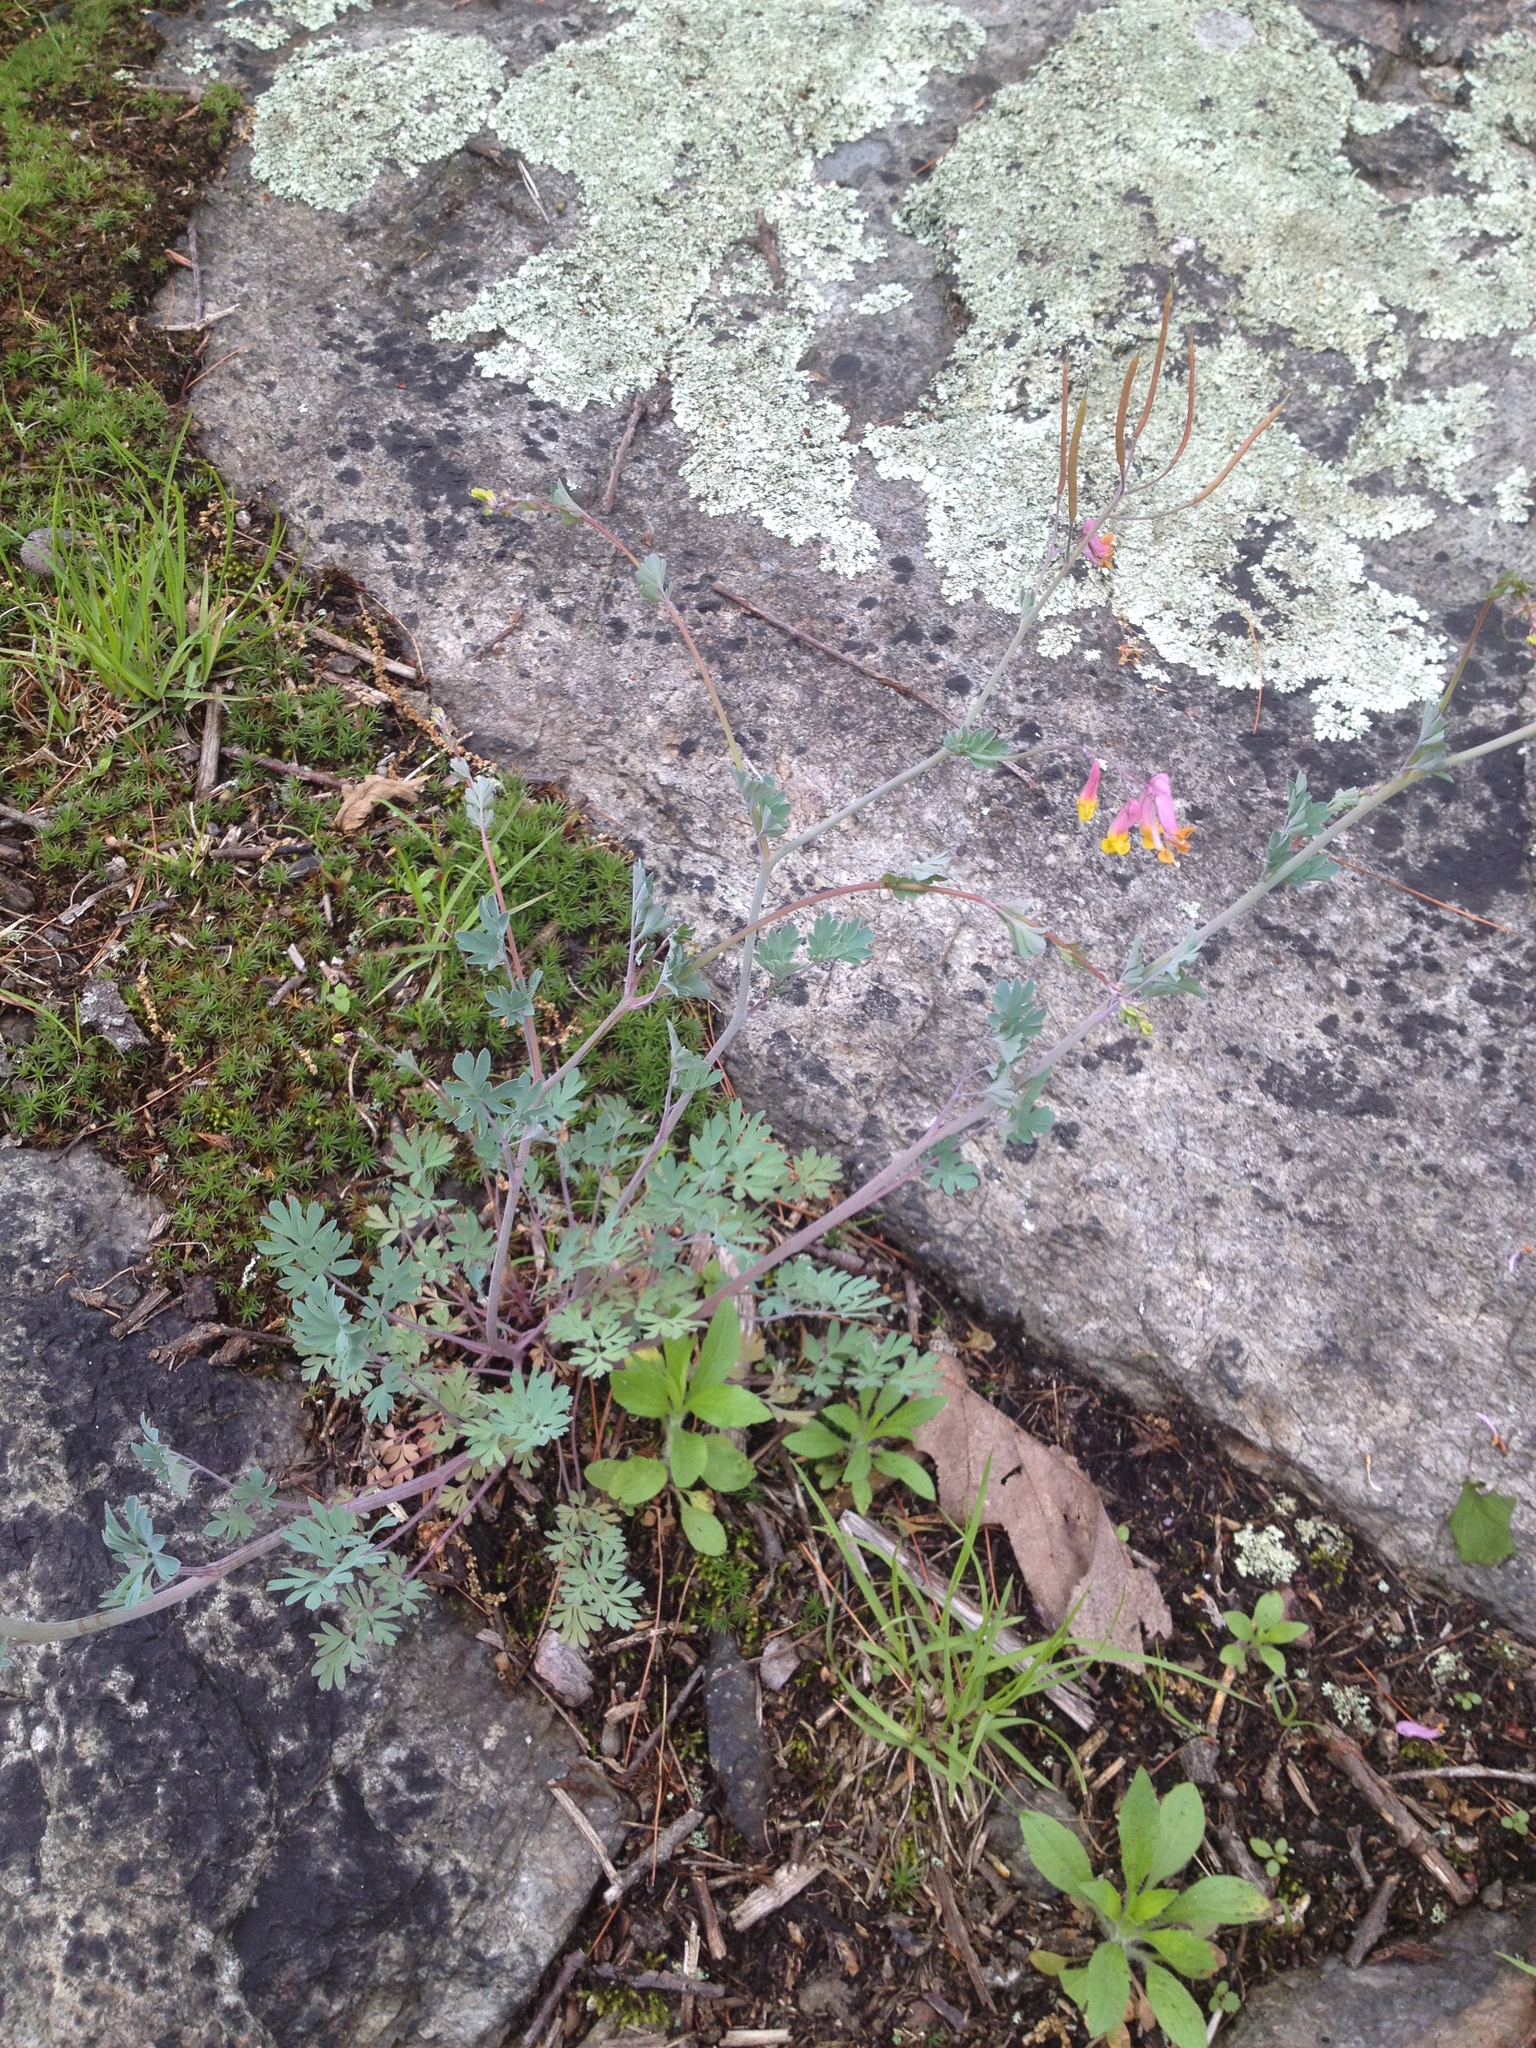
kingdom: Plantae
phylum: Tracheophyta
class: Magnoliopsida
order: Ranunculales
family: Papaveraceae
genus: Capnoides
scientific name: Capnoides sempervirens
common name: Rock harlequin
